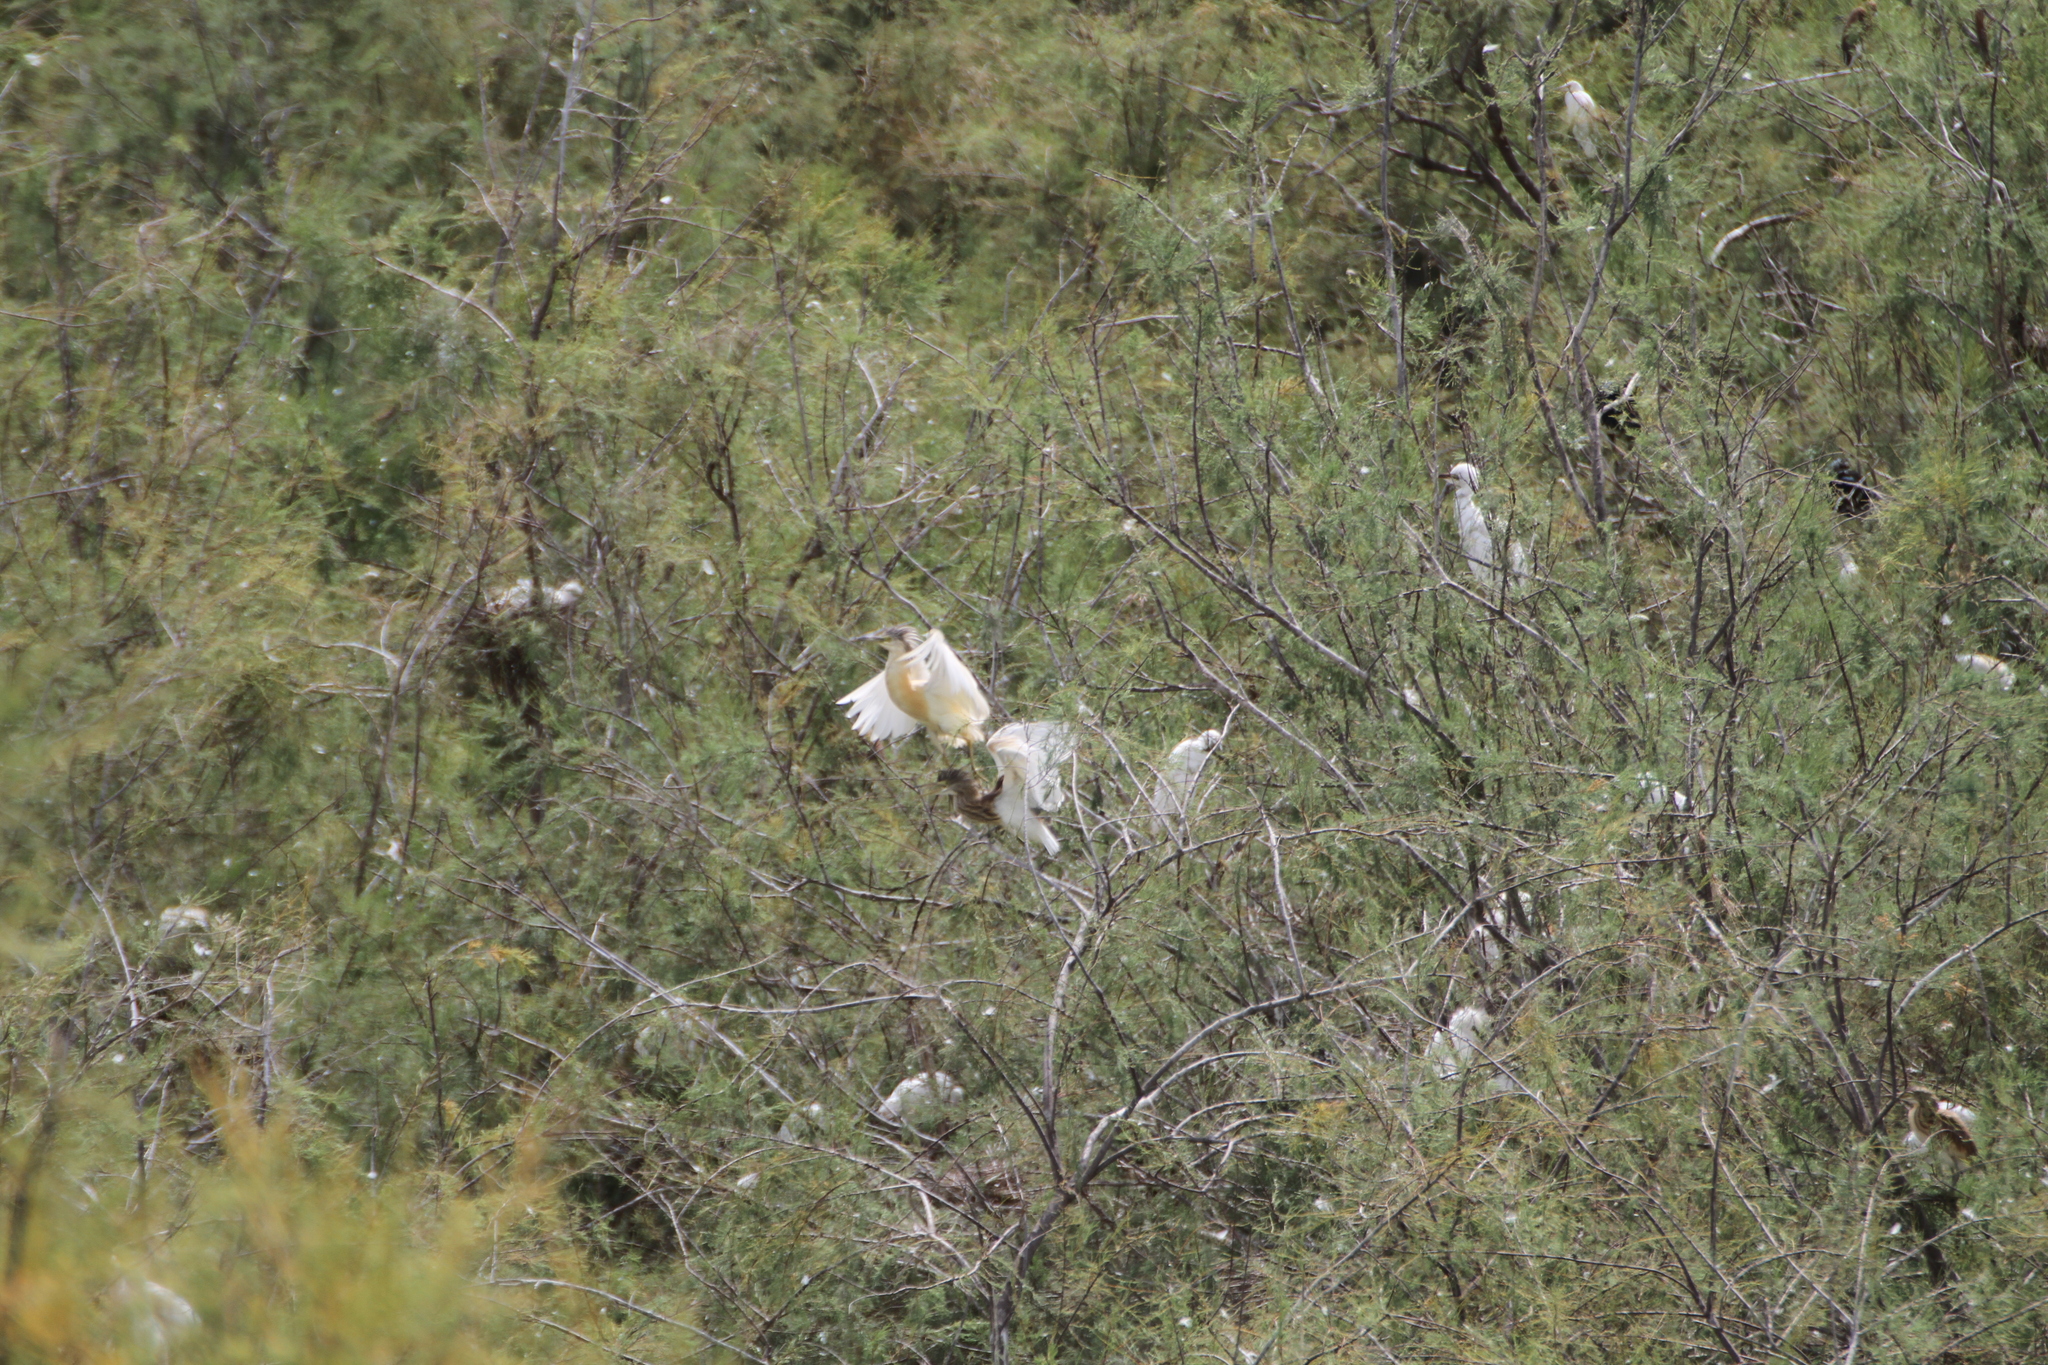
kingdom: Animalia
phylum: Chordata
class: Aves
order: Pelecaniformes
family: Ardeidae
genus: Ardeola
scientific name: Ardeola ralloides
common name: Squacco heron
